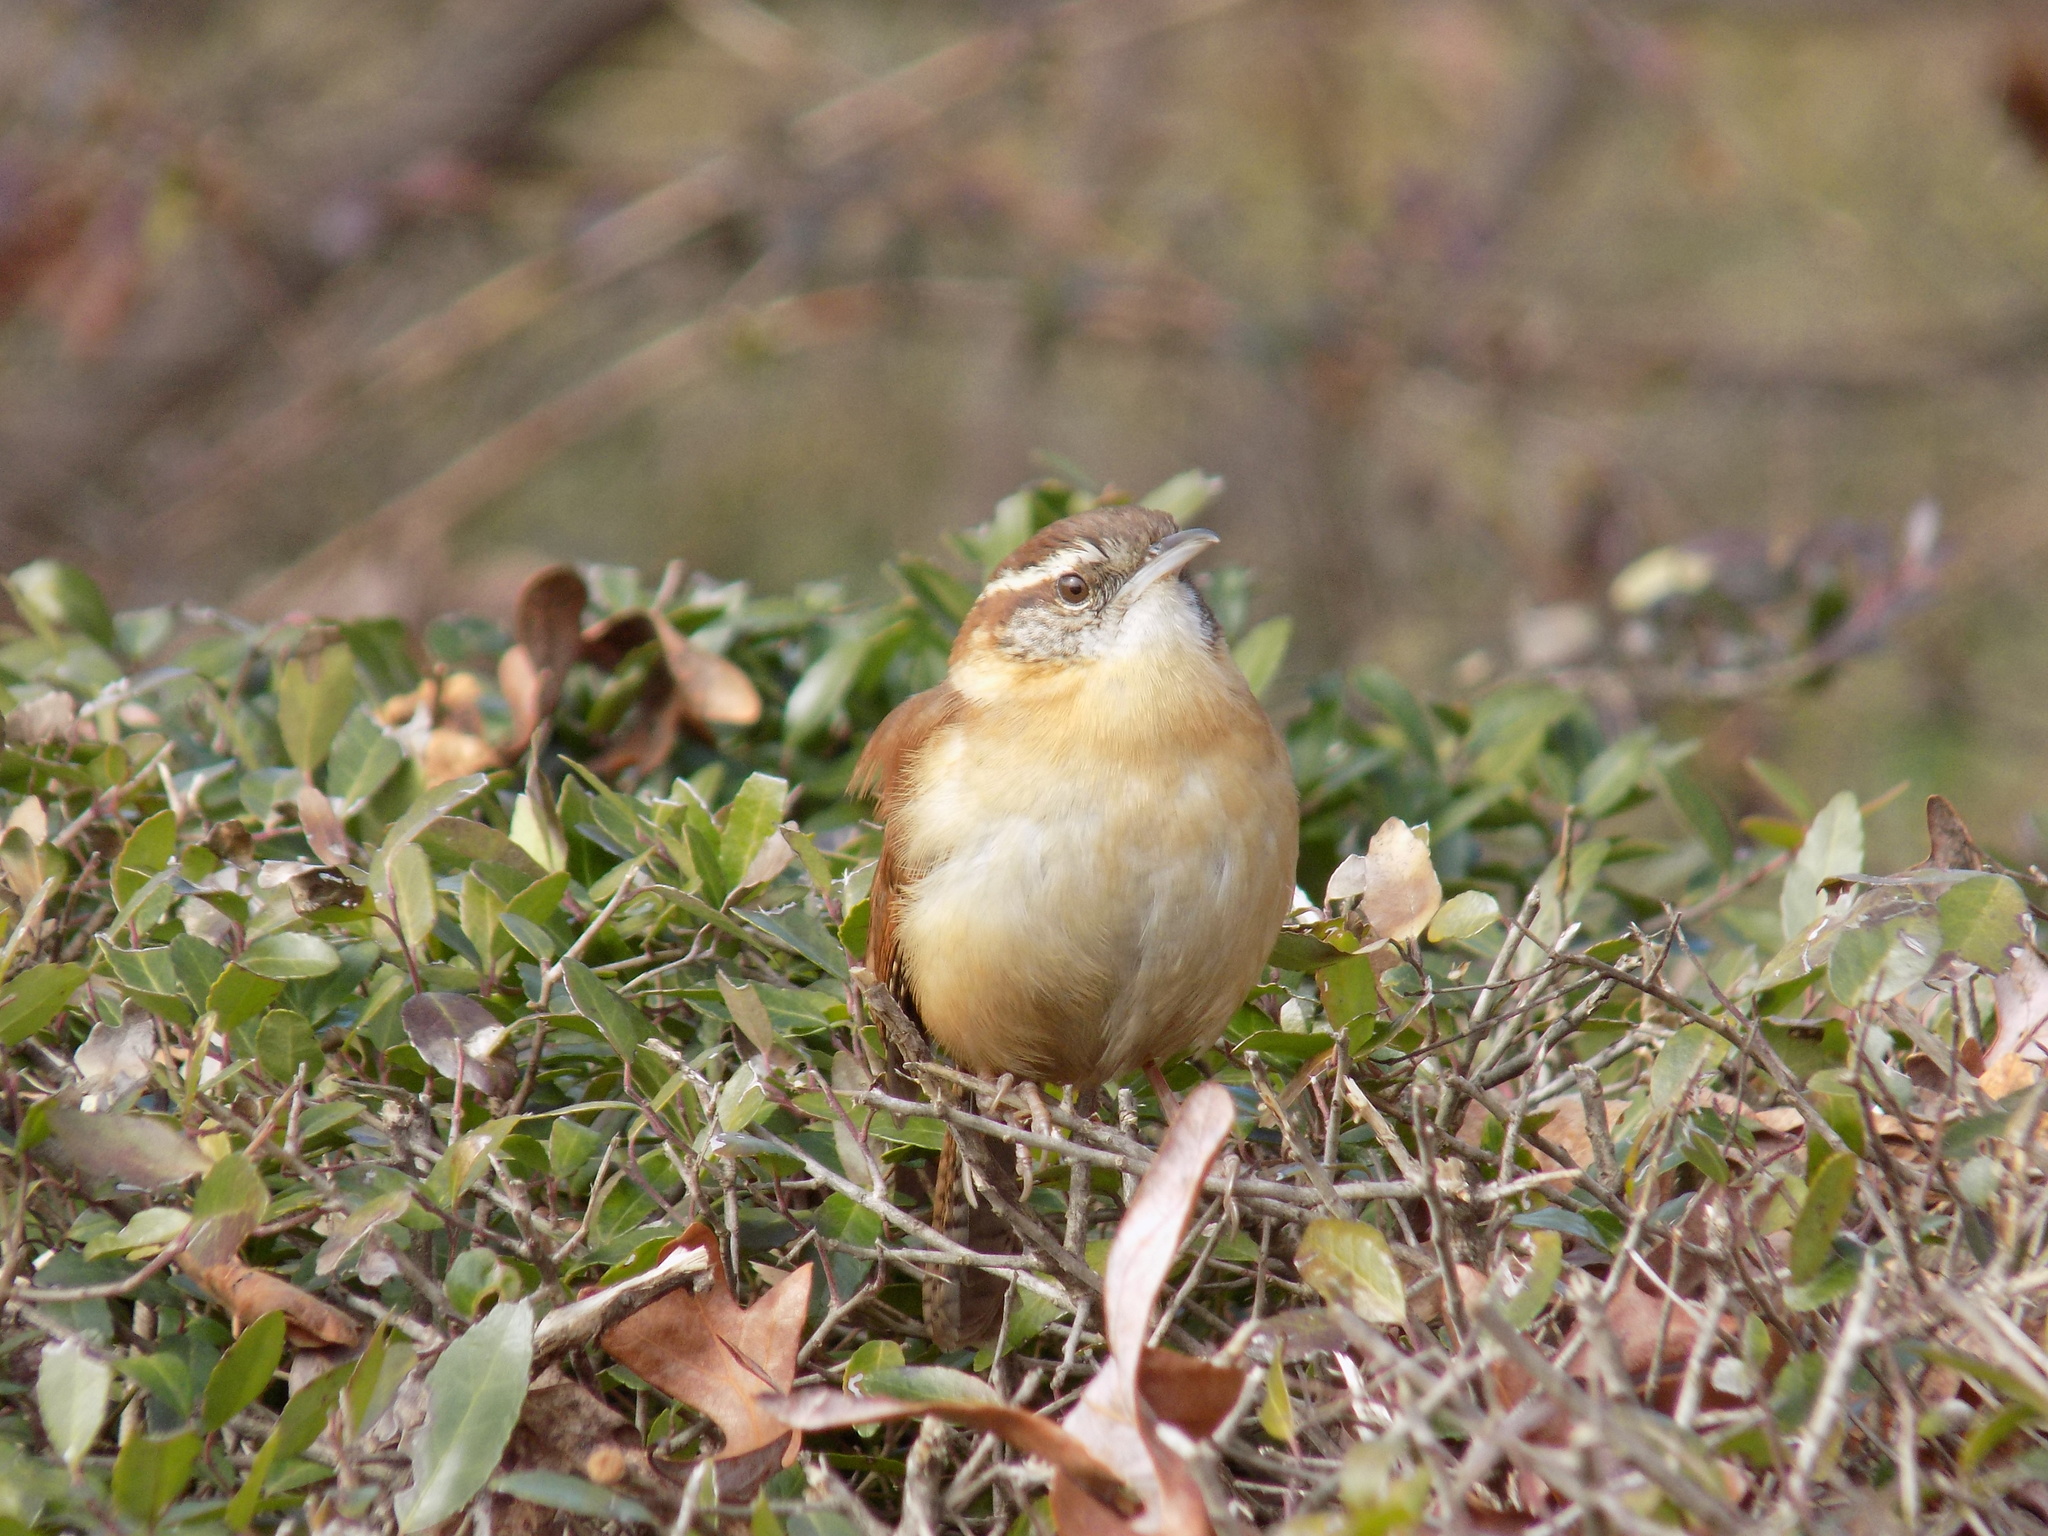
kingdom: Animalia
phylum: Chordata
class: Aves
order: Passeriformes
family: Troglodytidae
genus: Thryothorus
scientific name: Thryothorus ludovicianus
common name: Carolina wren
